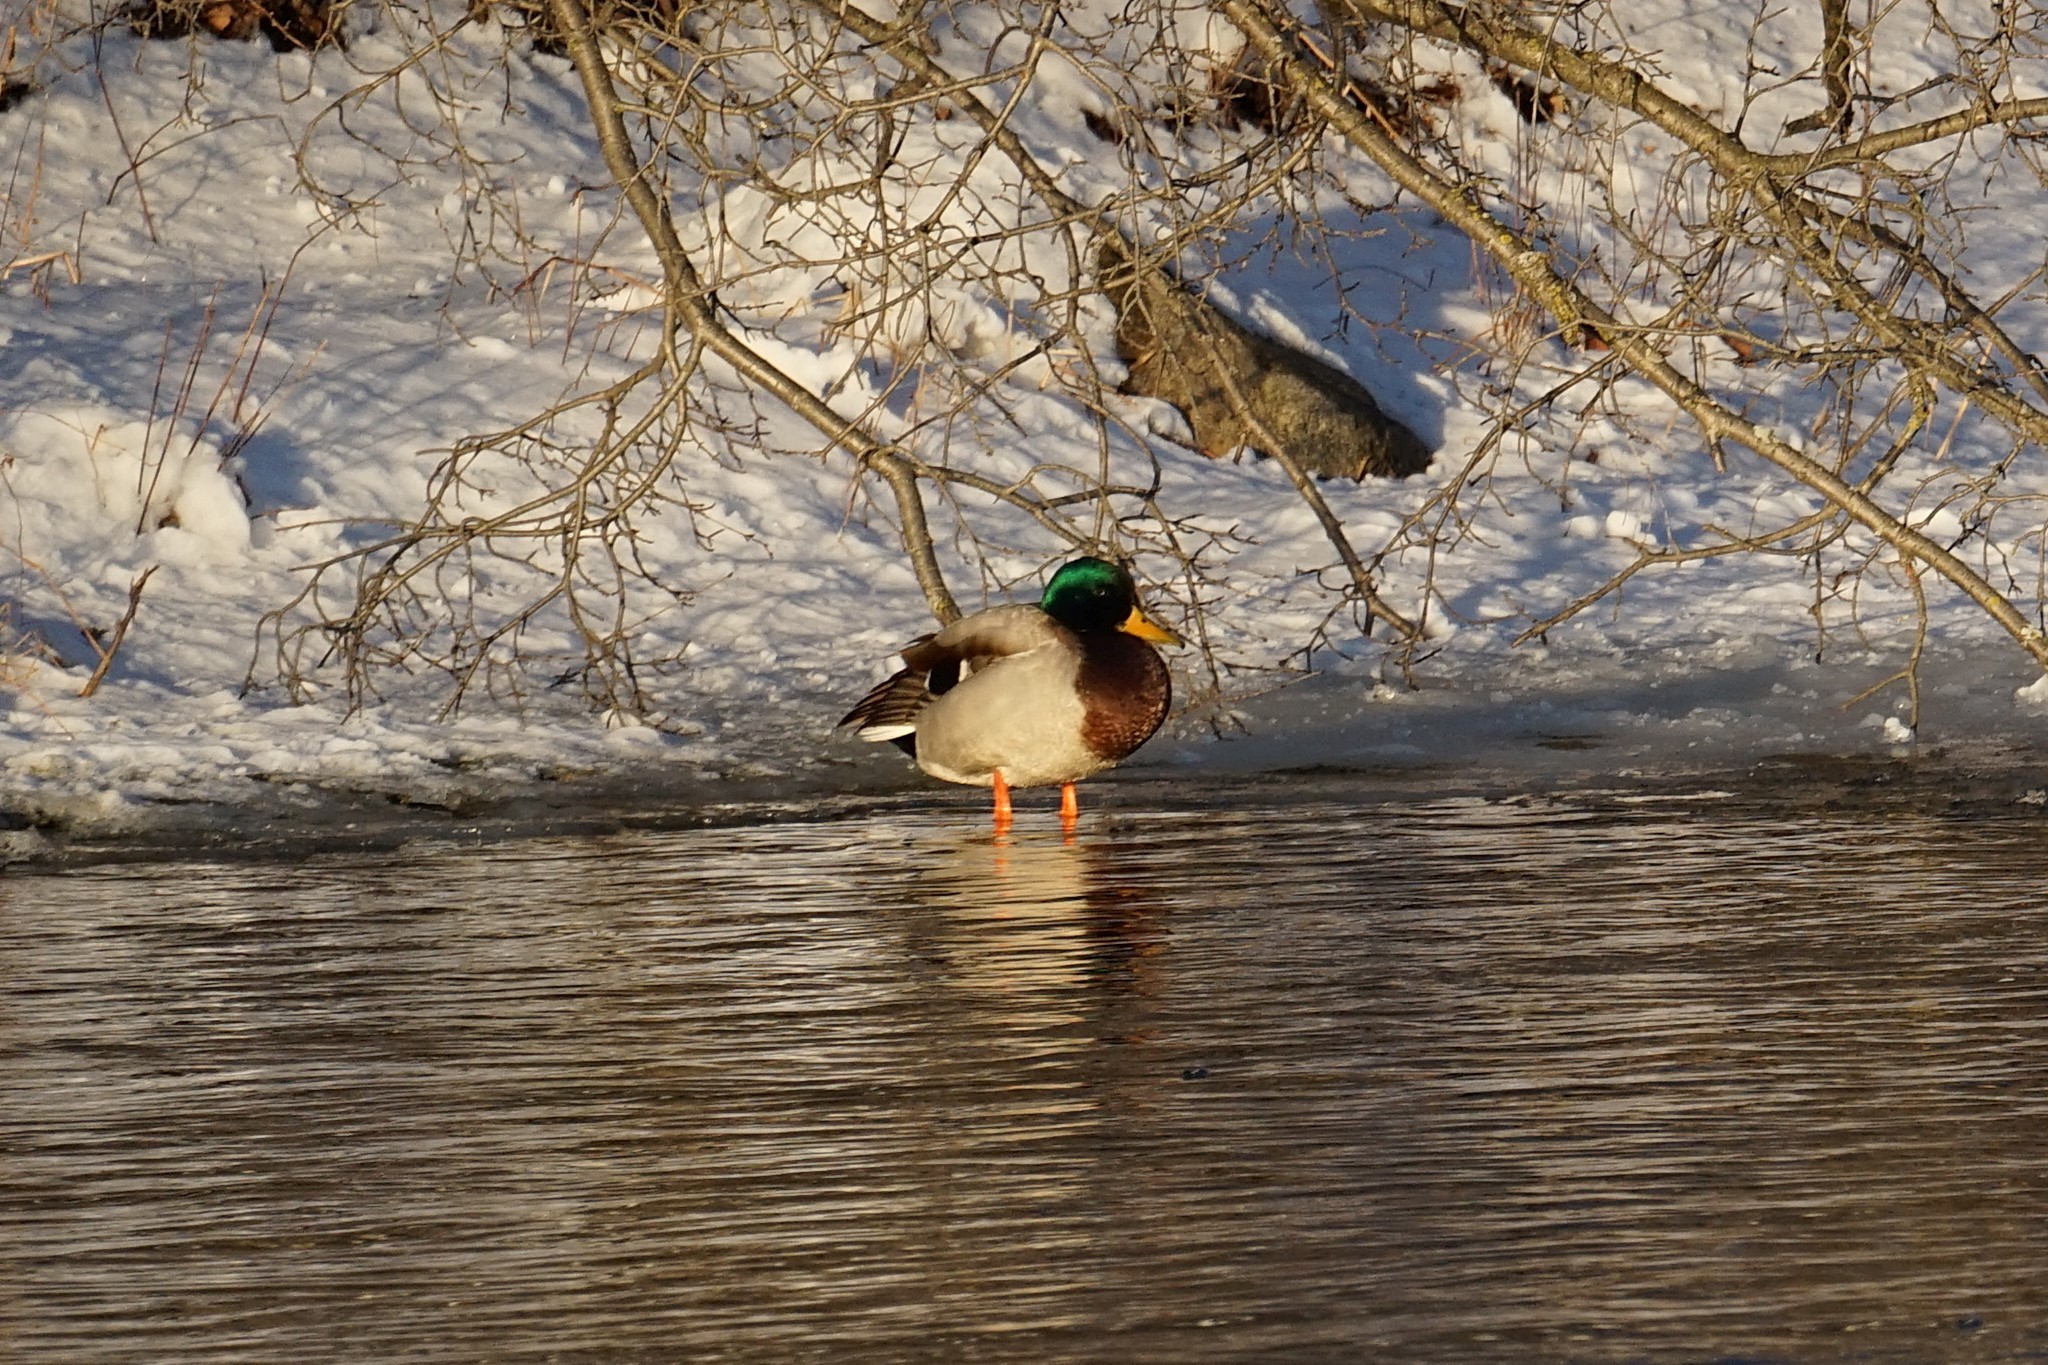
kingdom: Animalia
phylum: Chordata
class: Aves
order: Anseriformes
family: Anatidae
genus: Anas
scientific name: Anas platyrhynchos
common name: Mallard
